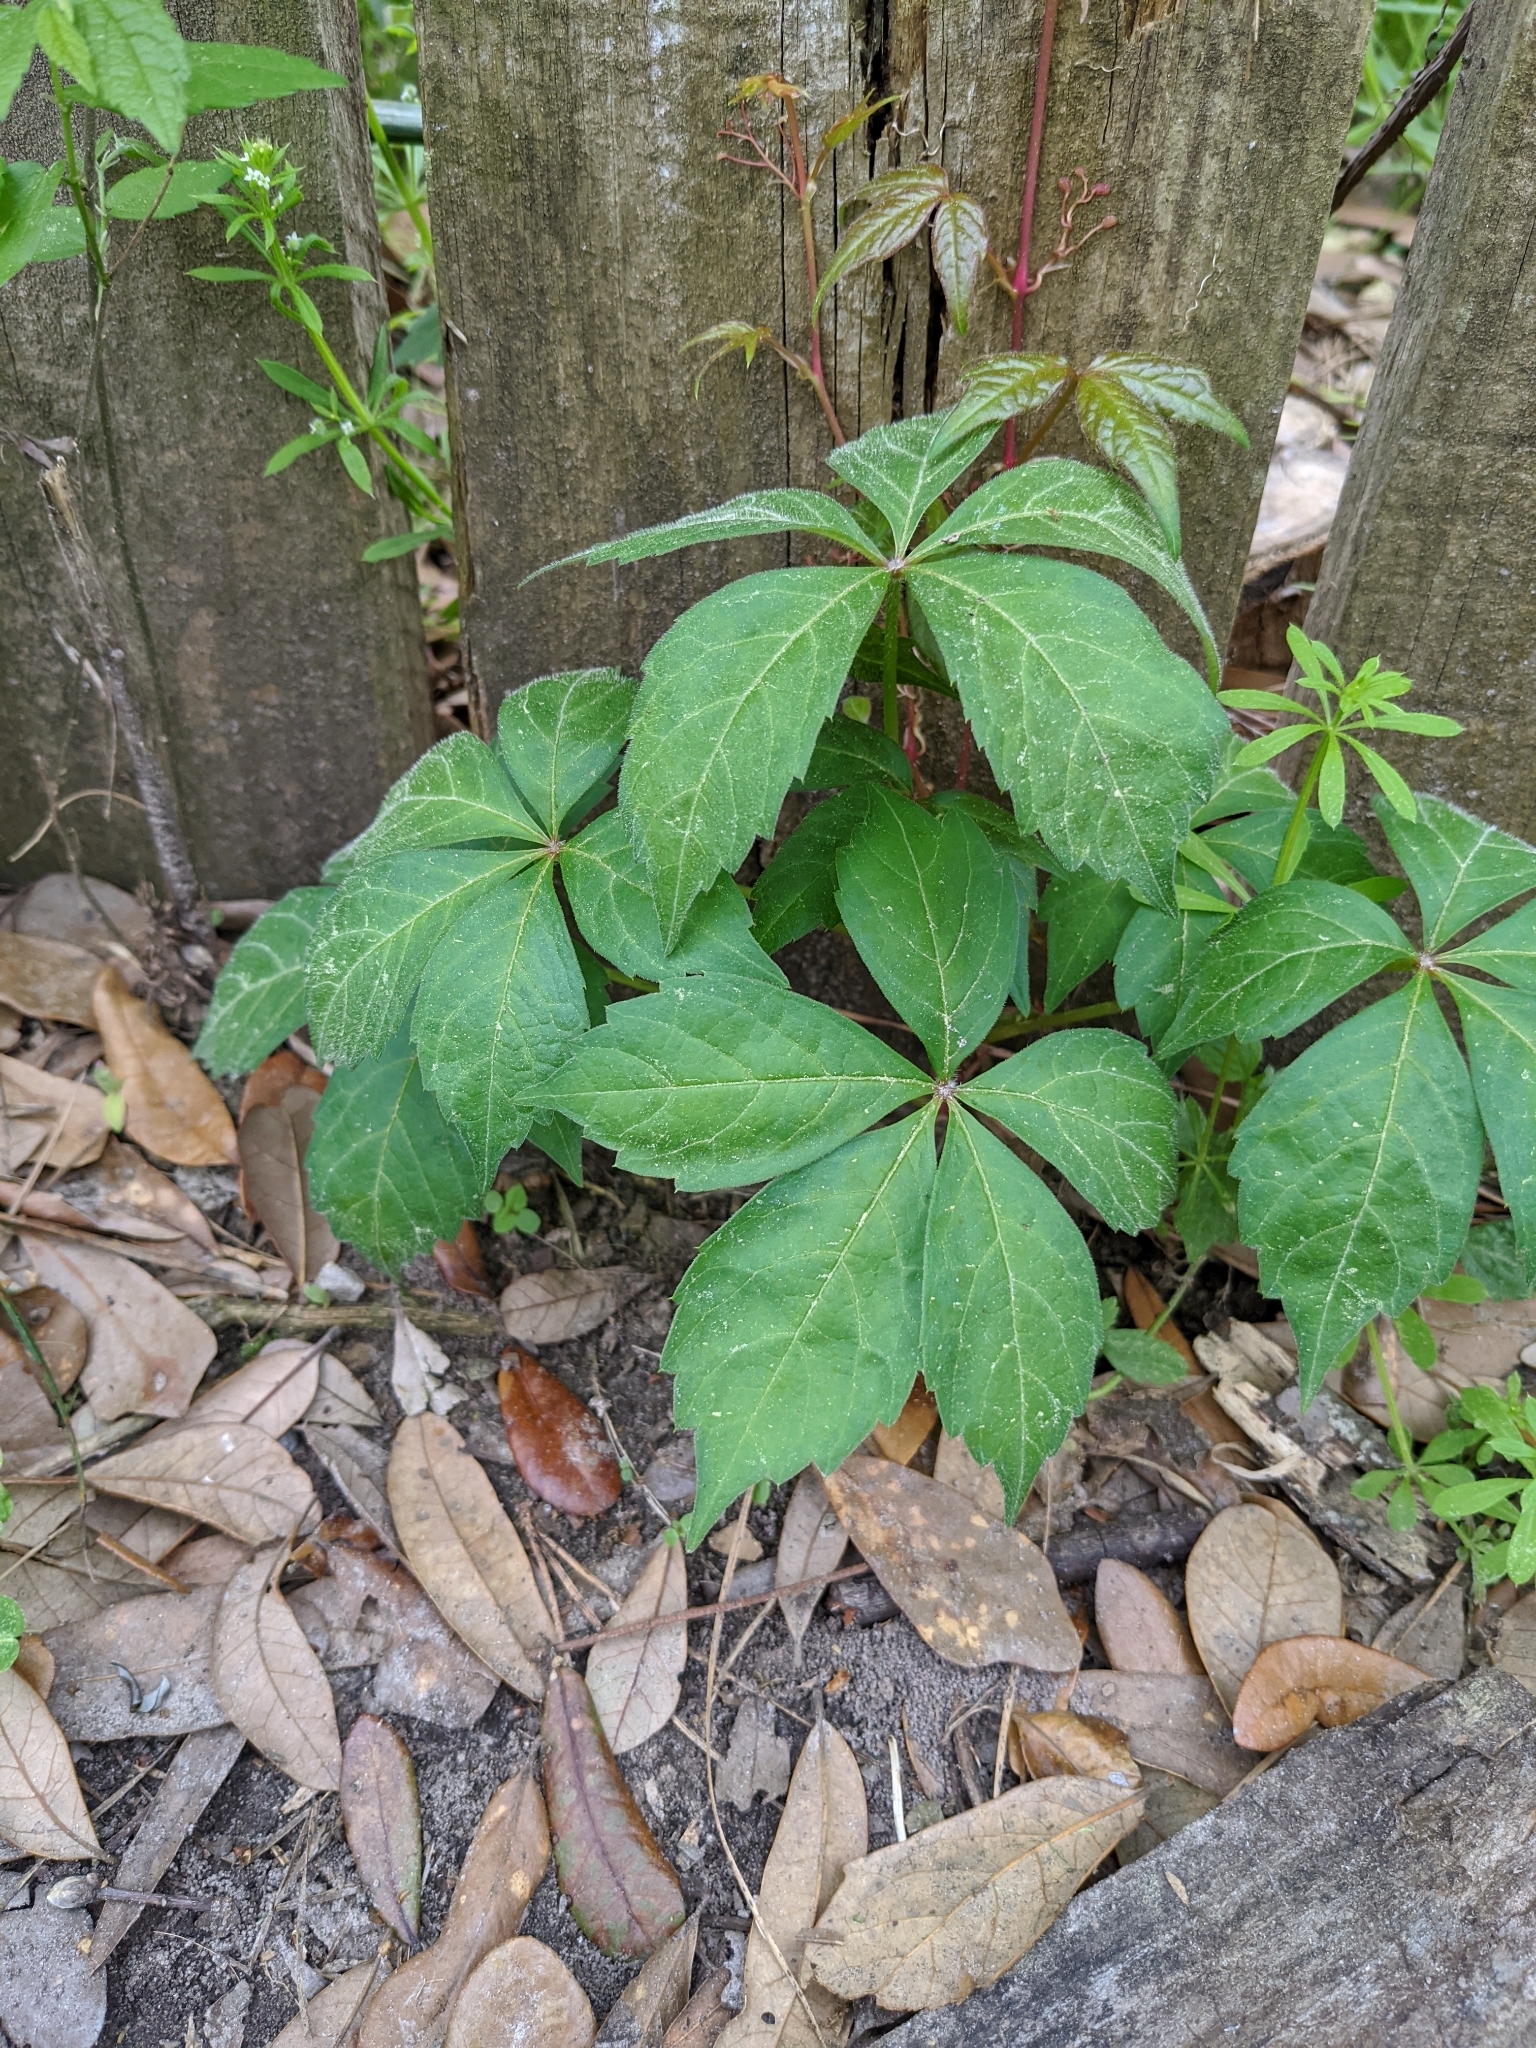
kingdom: Plantae
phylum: Tracheophyta
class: Magnoliopsida
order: Vitales
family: Vitaceae
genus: Parthenocissus
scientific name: Parthenocissus quinquefolia
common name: Virginia-creeper
